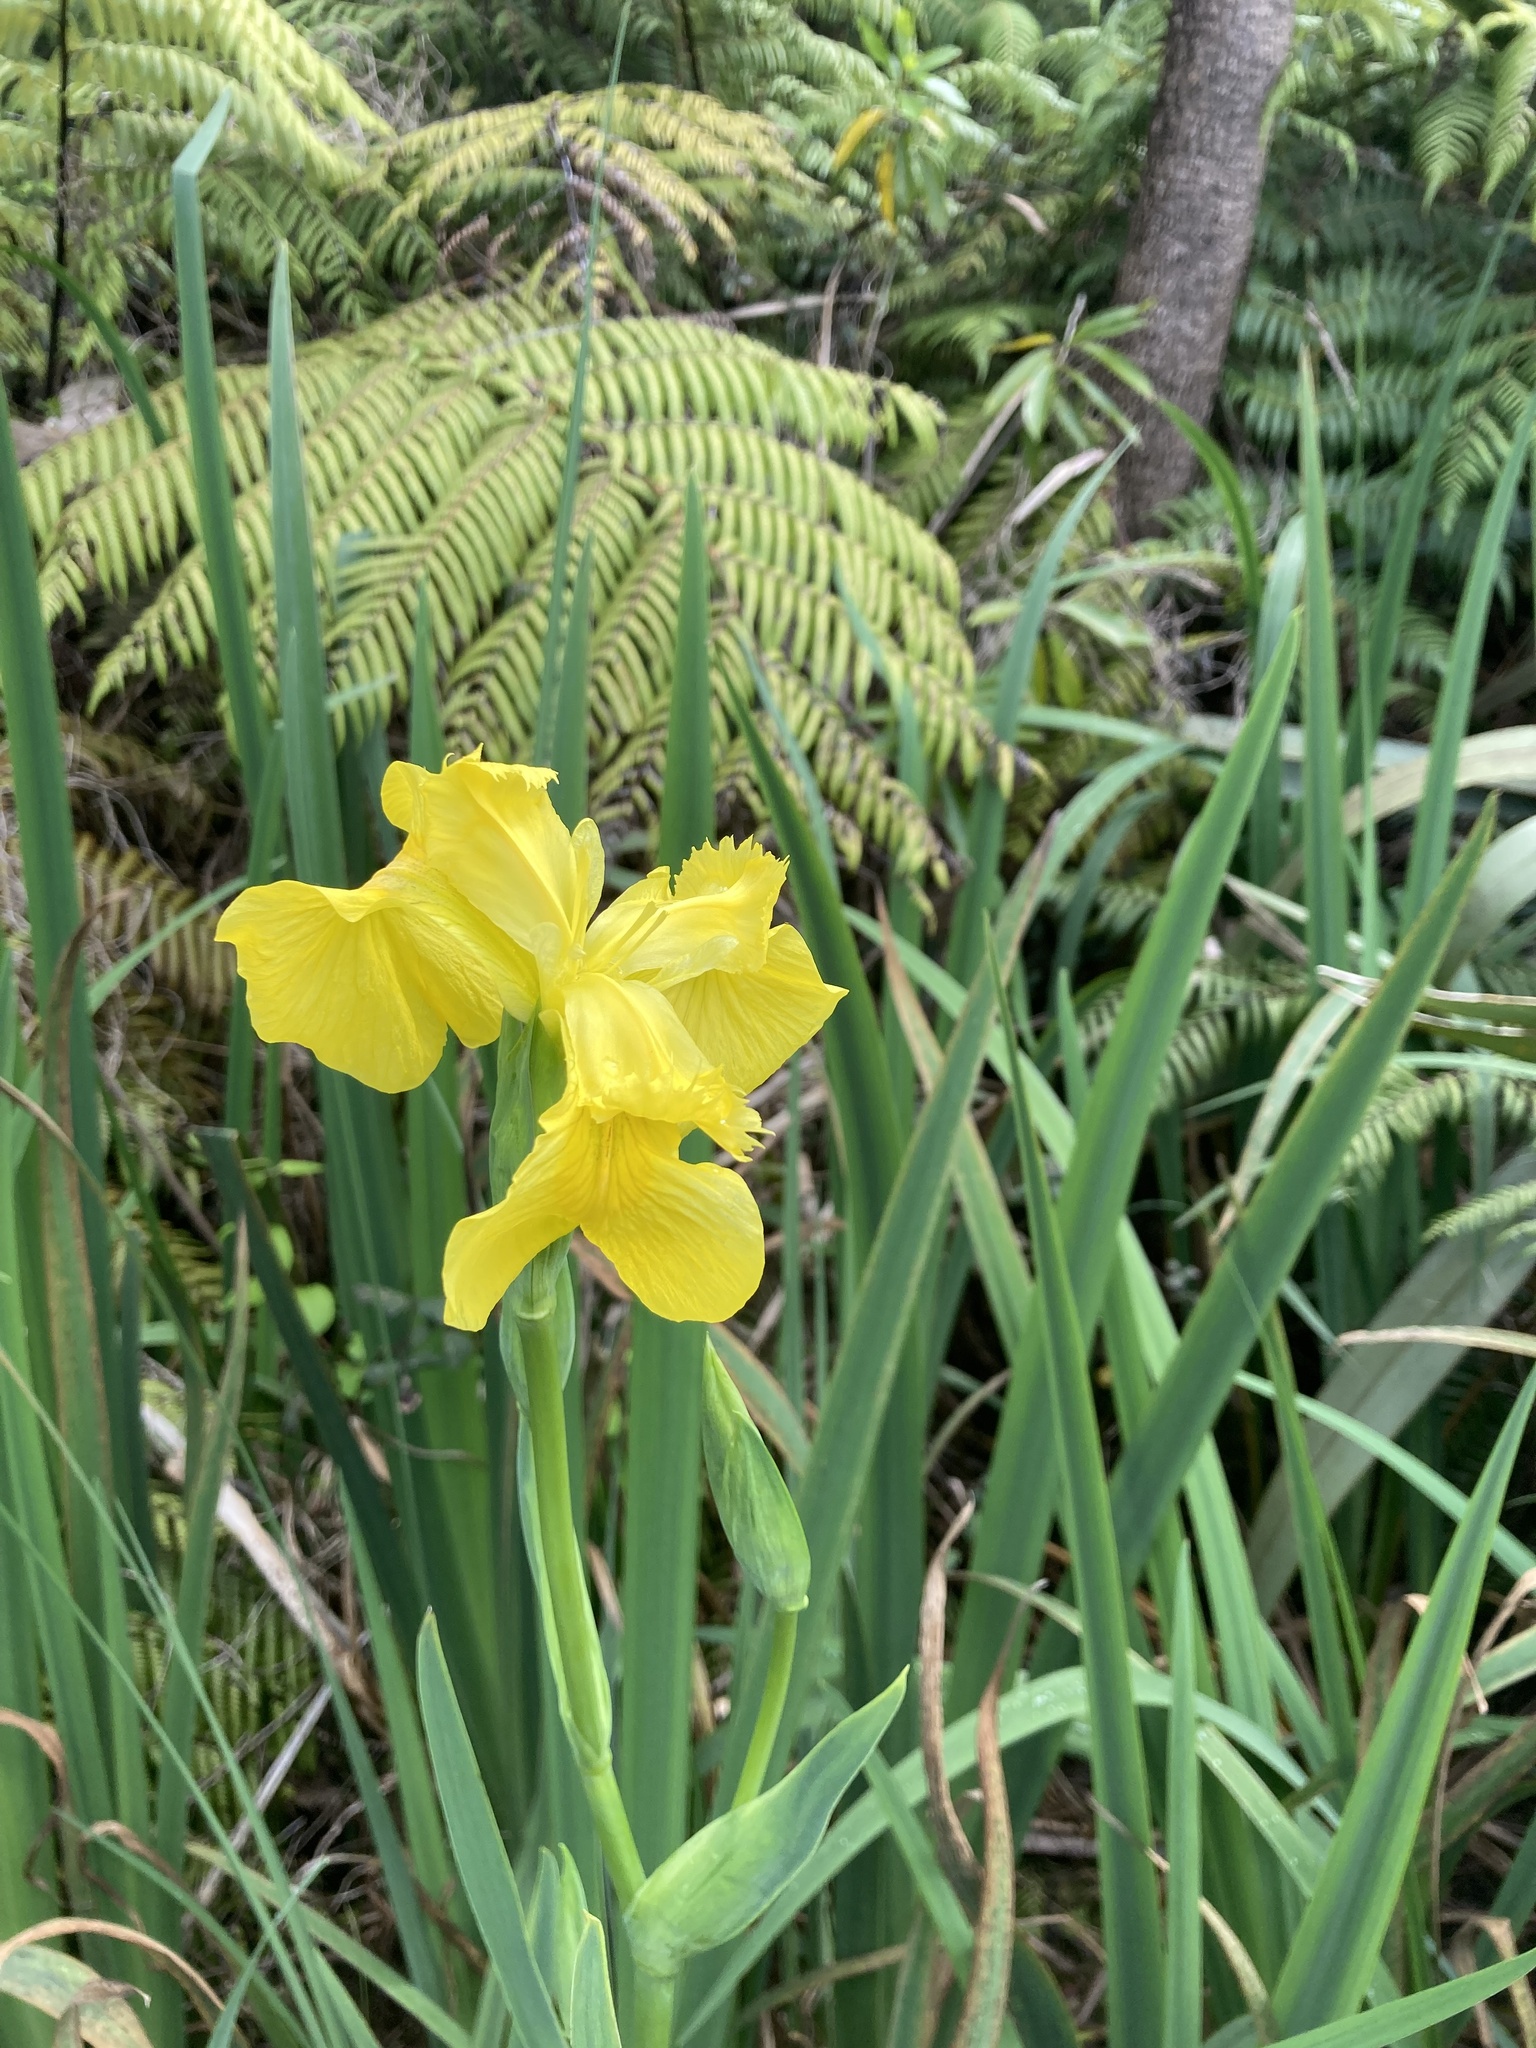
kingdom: Plantae
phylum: Tracheophyta
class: Liliopsida
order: Asparagales
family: Iridaceae
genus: Iris
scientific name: Iris pseudacorus
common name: Yellow flag
